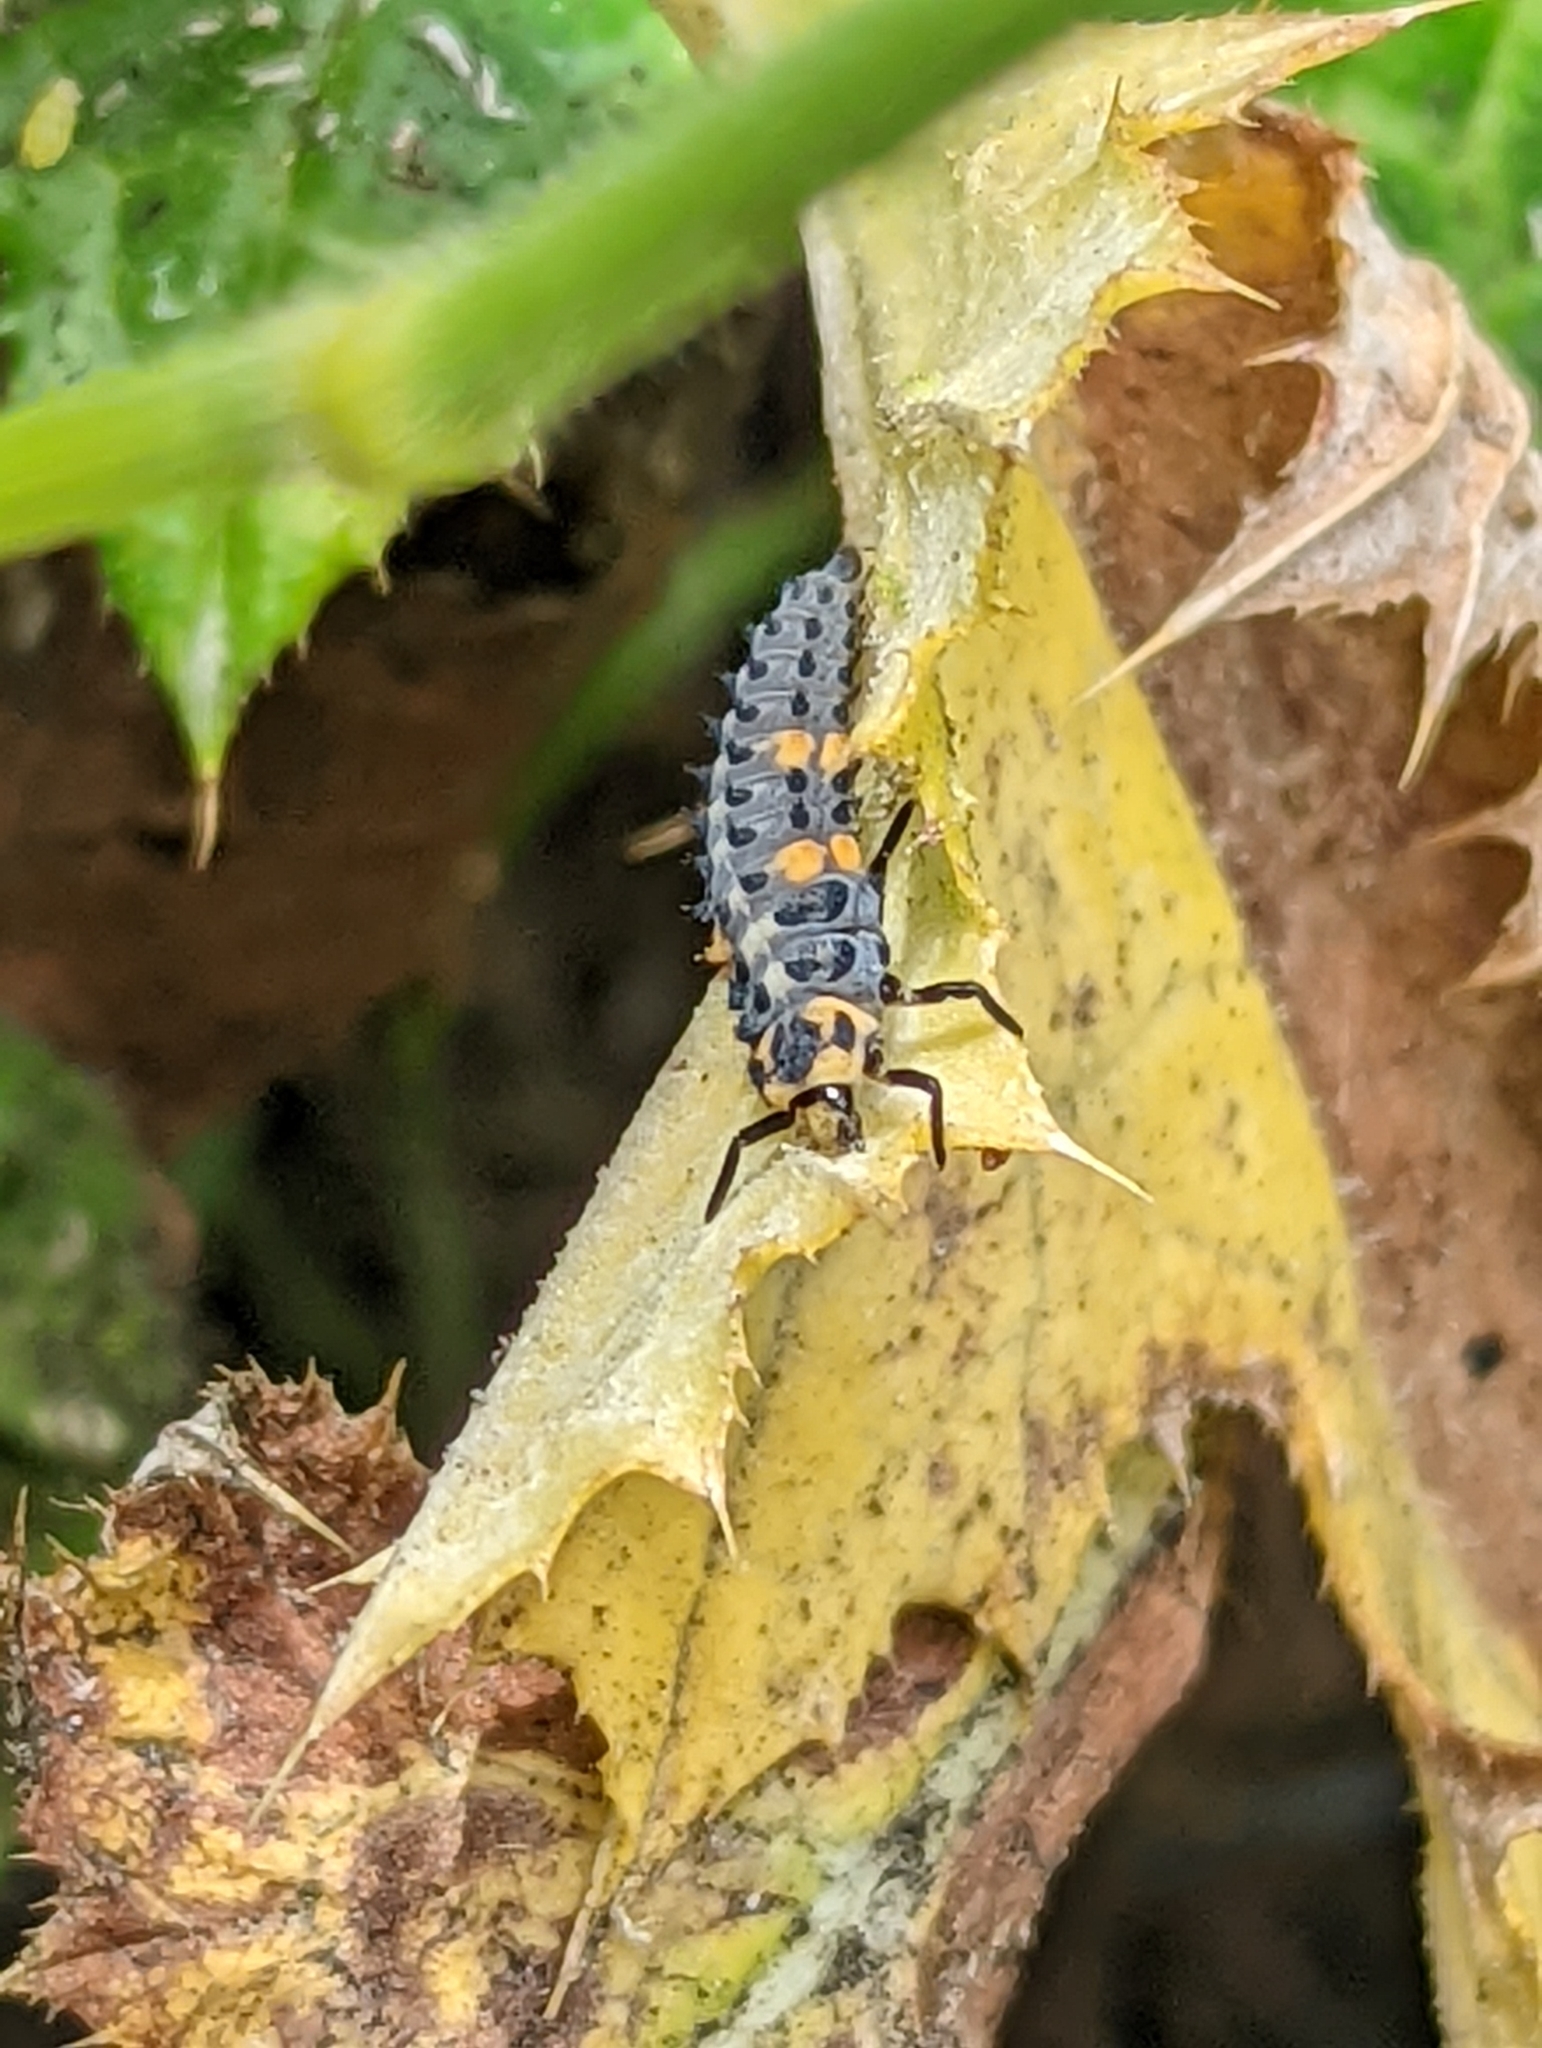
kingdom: Animalia
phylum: Arthropoda
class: Insecta
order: Coleoptera
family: Coccinellidae
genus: Coccinella
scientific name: Coccinella novemnotata
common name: Nine-spotted lady beetle
